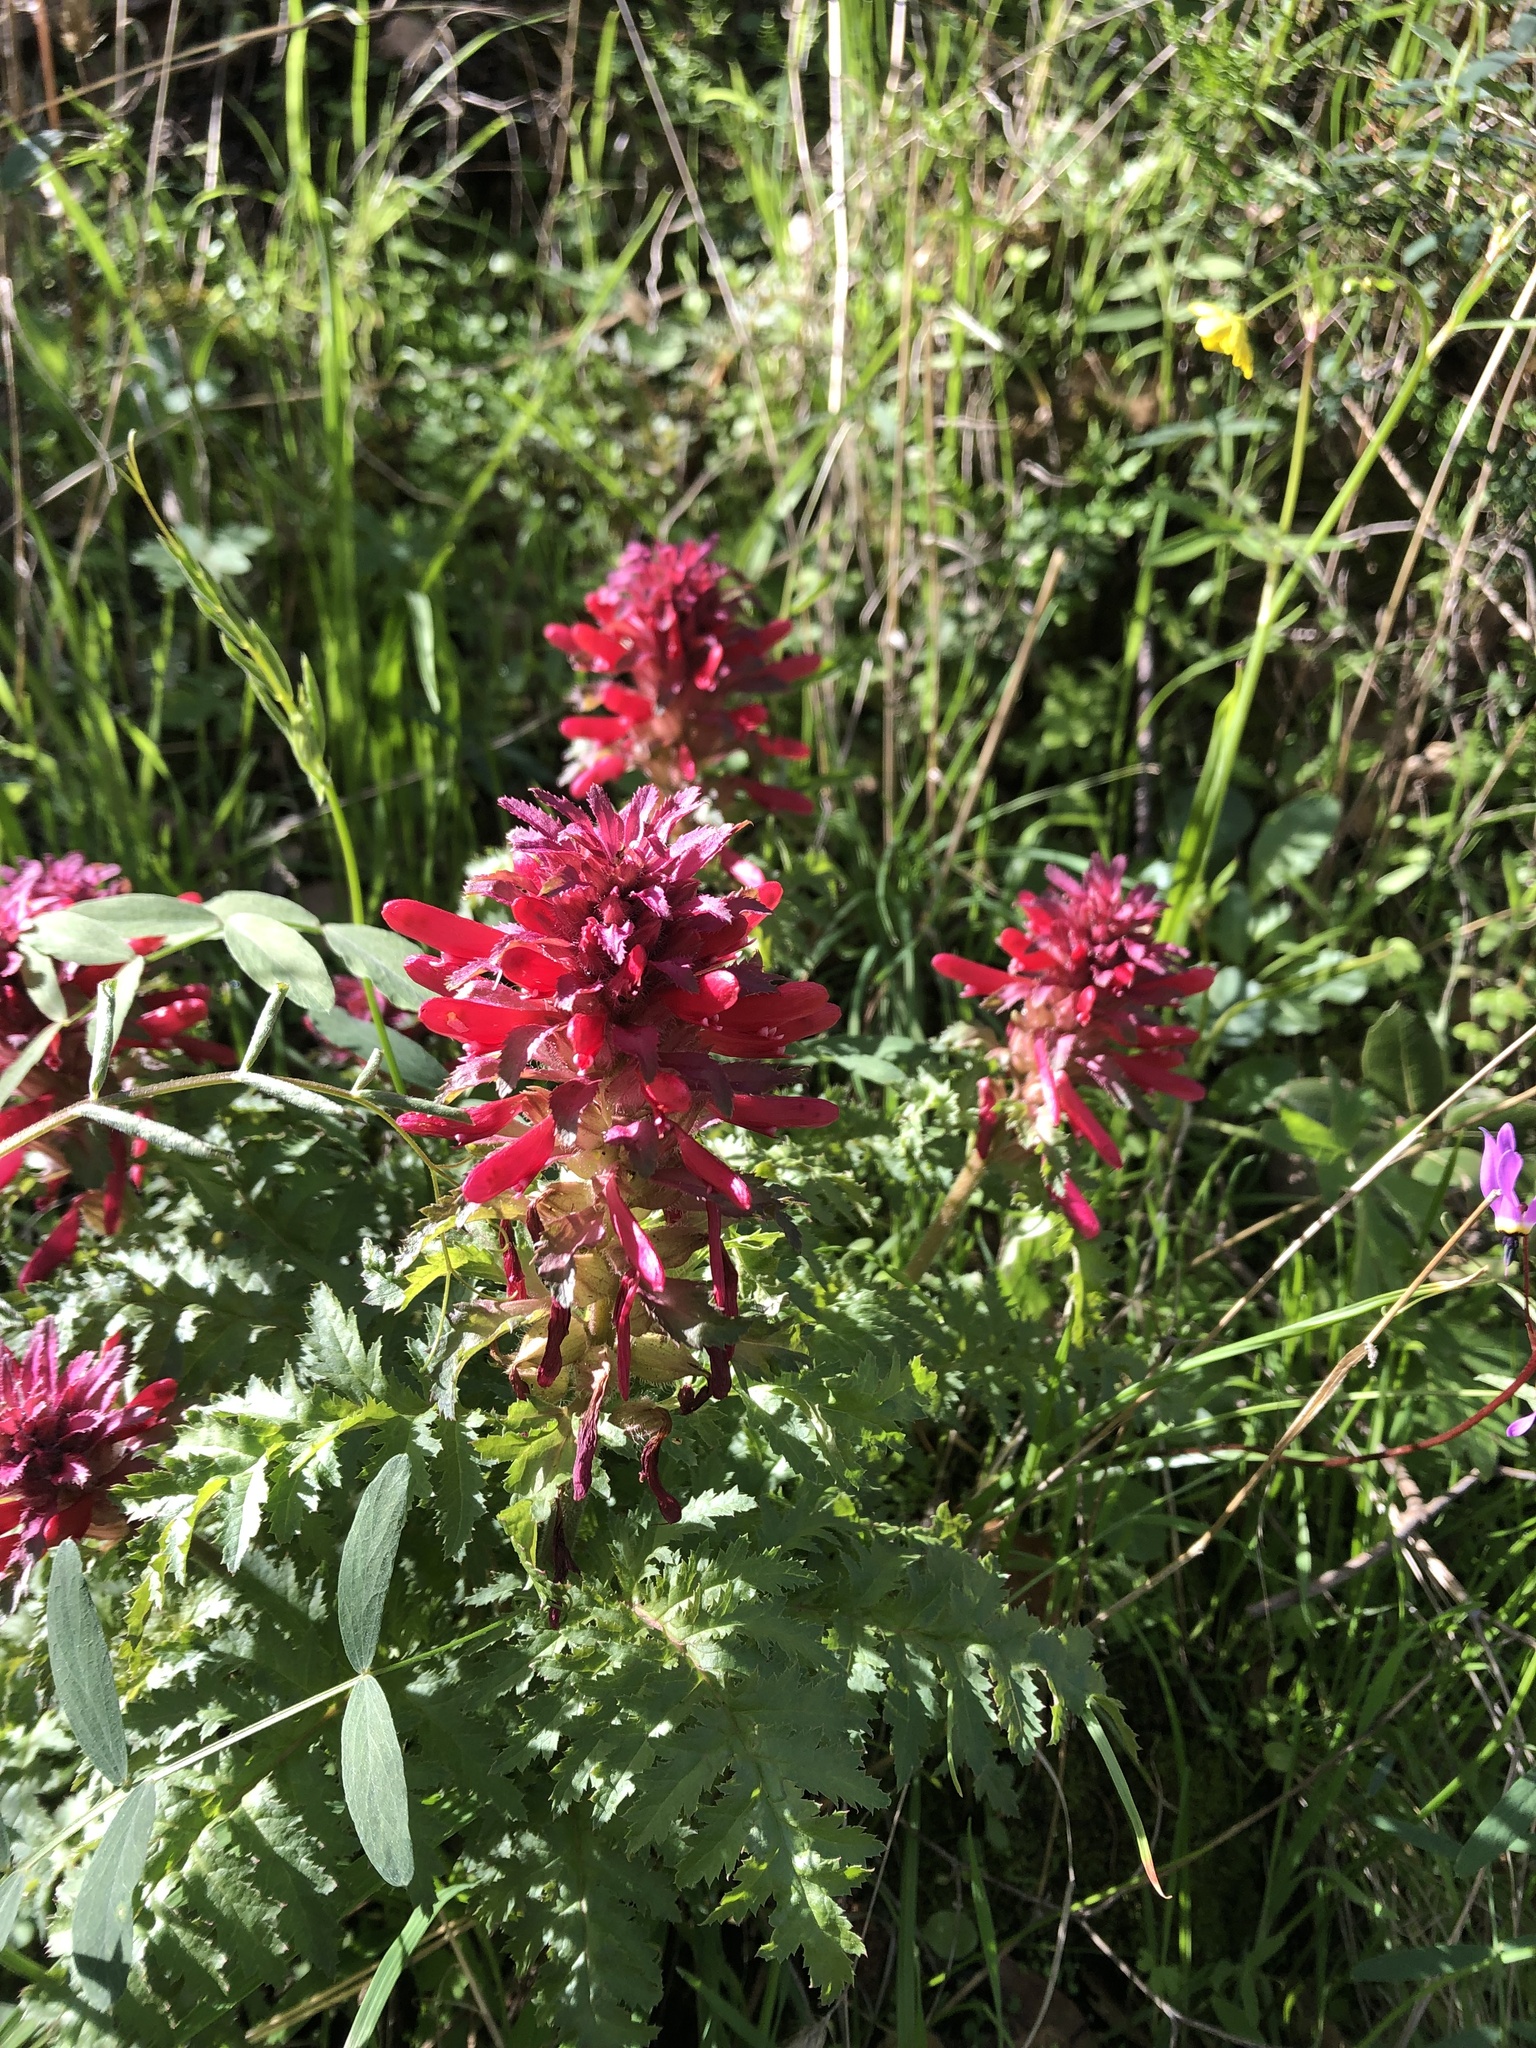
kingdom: Plantae
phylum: Tracheophyta
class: Magnoliopsida
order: Lamiales
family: Orobanchaceae
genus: Pedicularis
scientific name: Pedicularis densiflora
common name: Indian warrior
